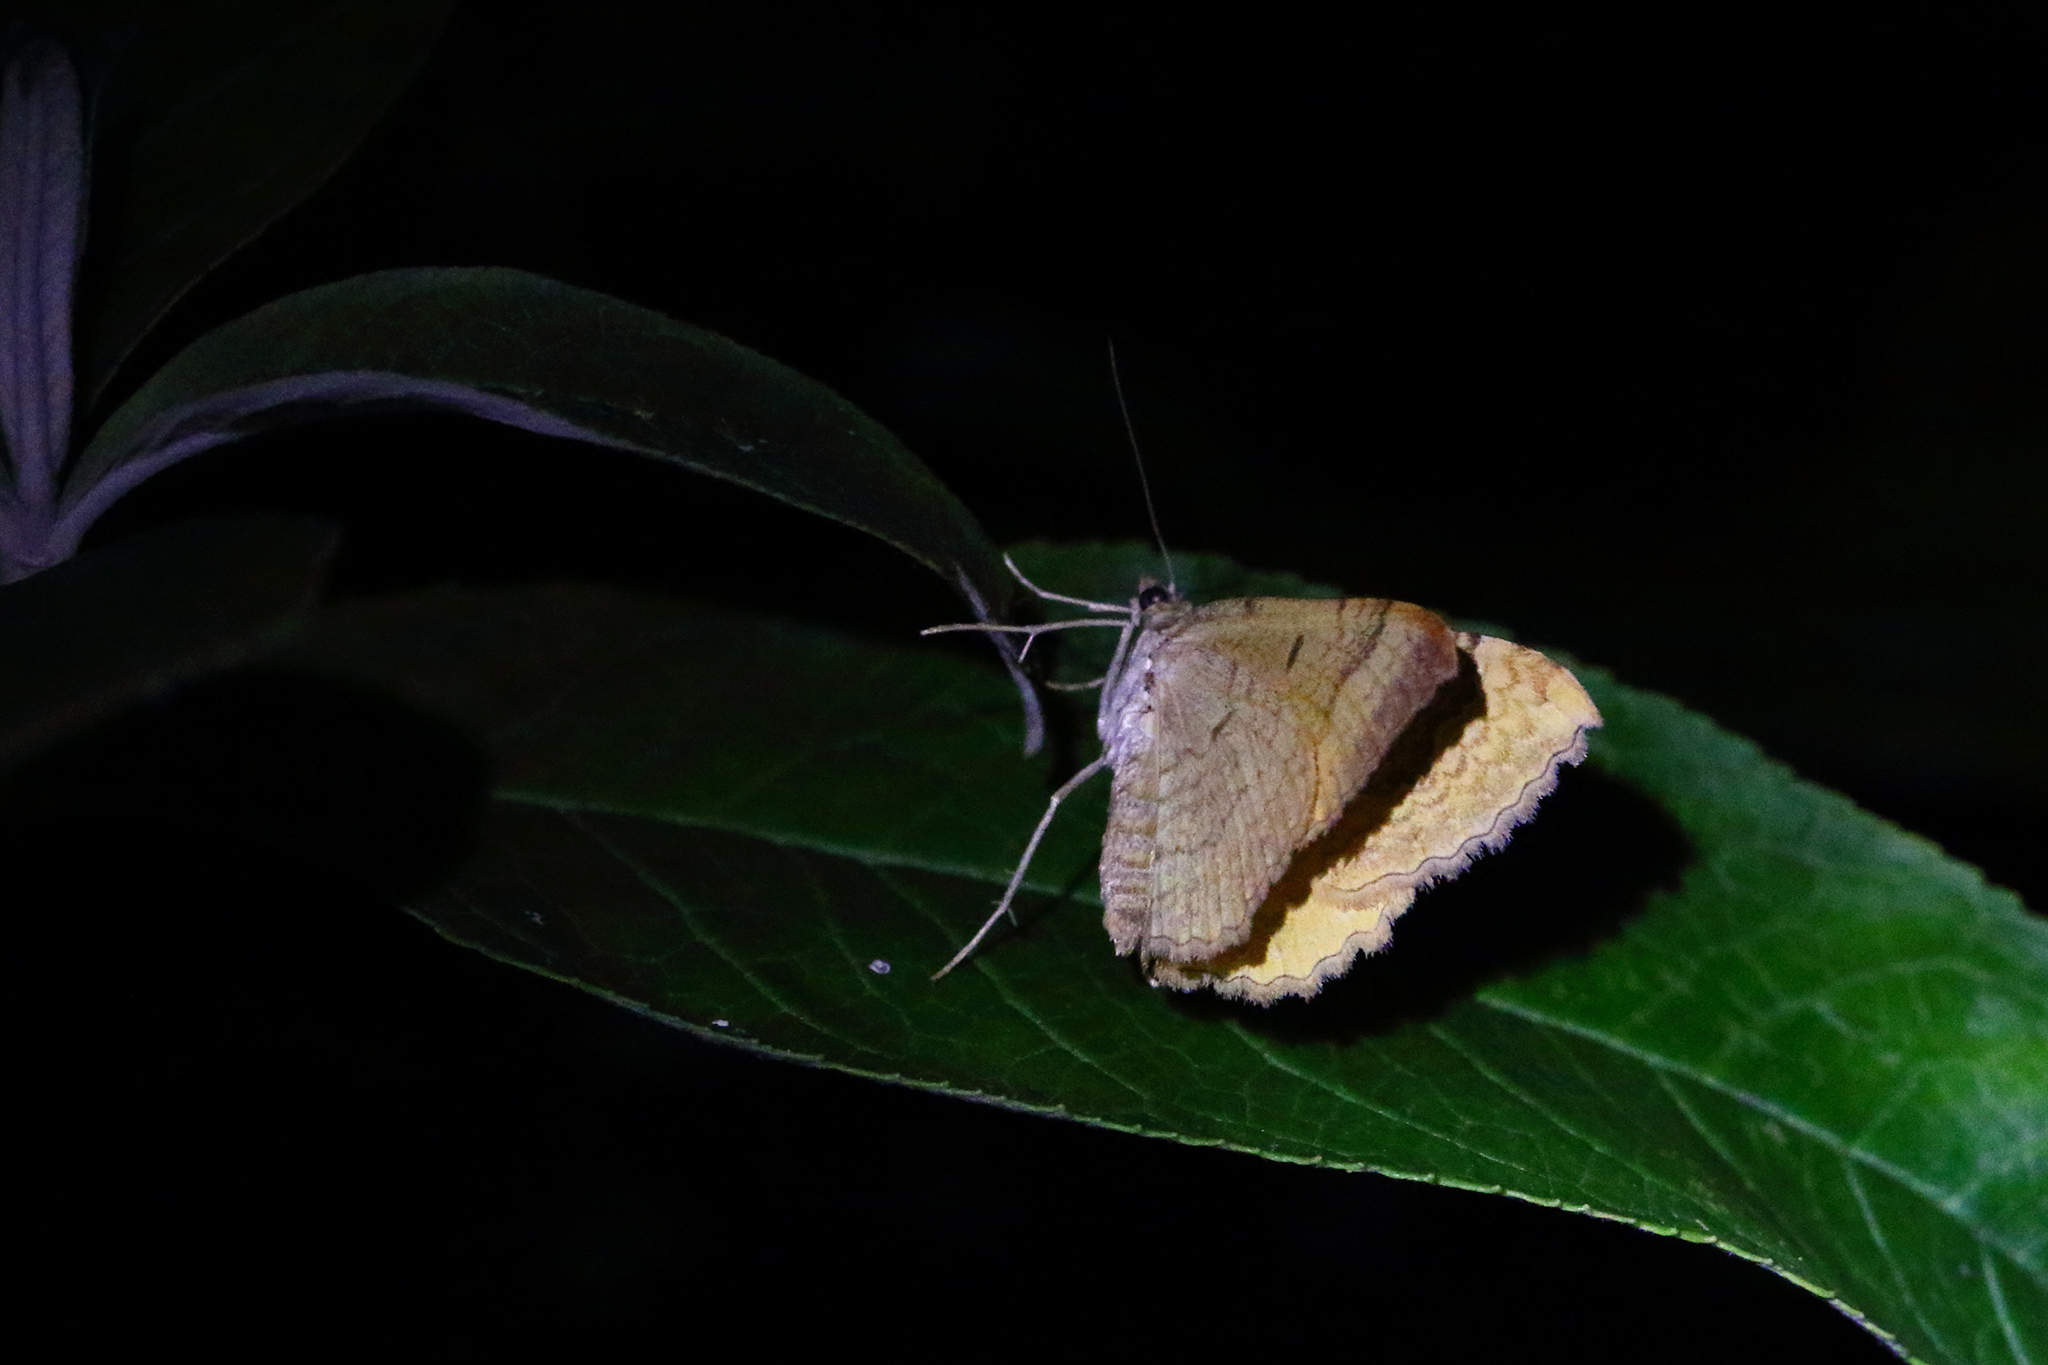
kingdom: Animalia
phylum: Arthropoda
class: Insecta
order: Lepidoptera
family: Geometridae
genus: Camptogramma
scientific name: Camptogramma bilineata
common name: Yellow shell
